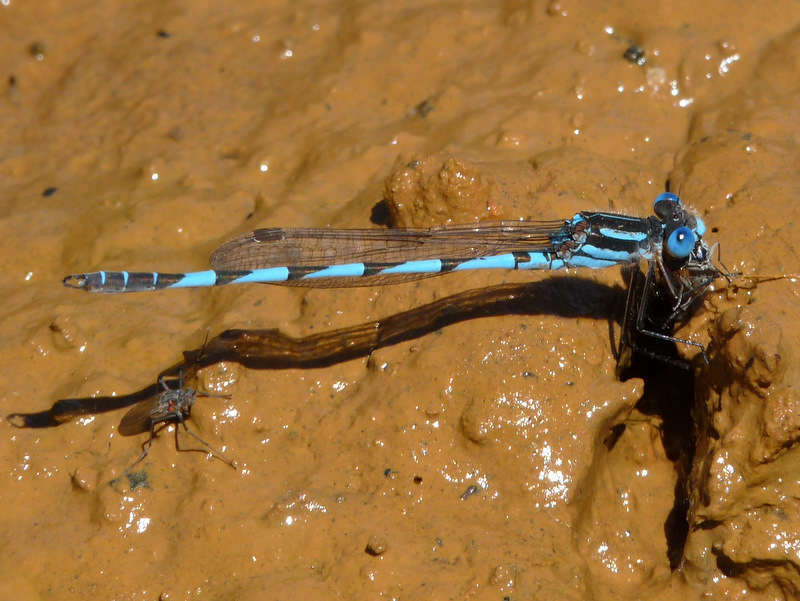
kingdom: Animalia
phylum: Arthropoda
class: Insecta
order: Odonata
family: Lestidae
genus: Austrolestes
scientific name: Austrolestes annulosus
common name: Blue ringtail
